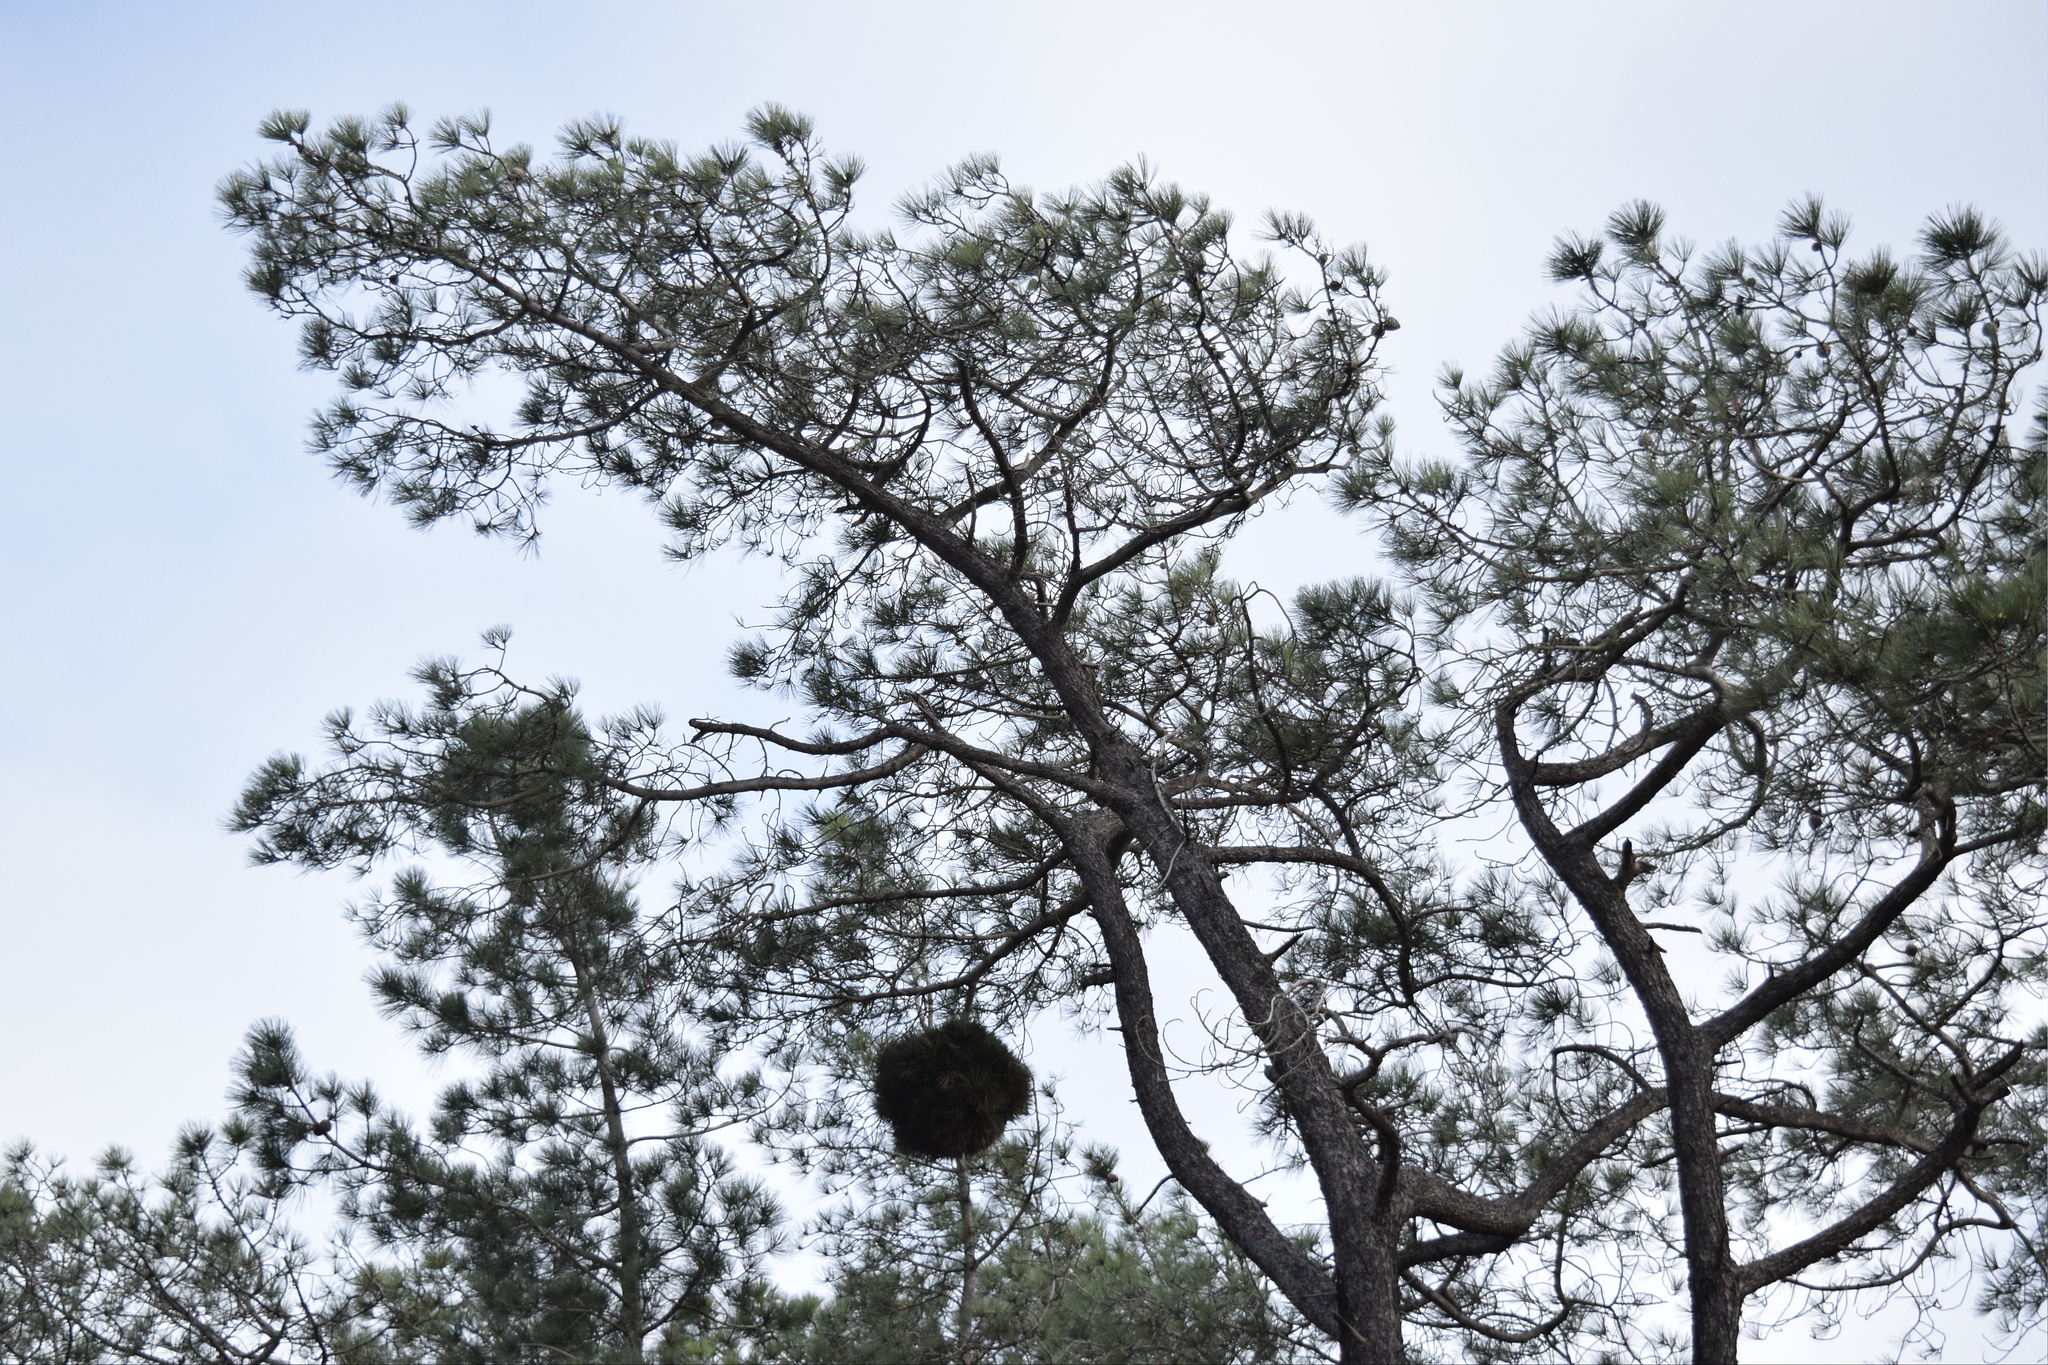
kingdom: Plantae
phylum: Tracheophyta
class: Pinopsida
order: Pinales
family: Pinaceae
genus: Pinus
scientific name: Pinus torreyana
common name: Torrey pine
